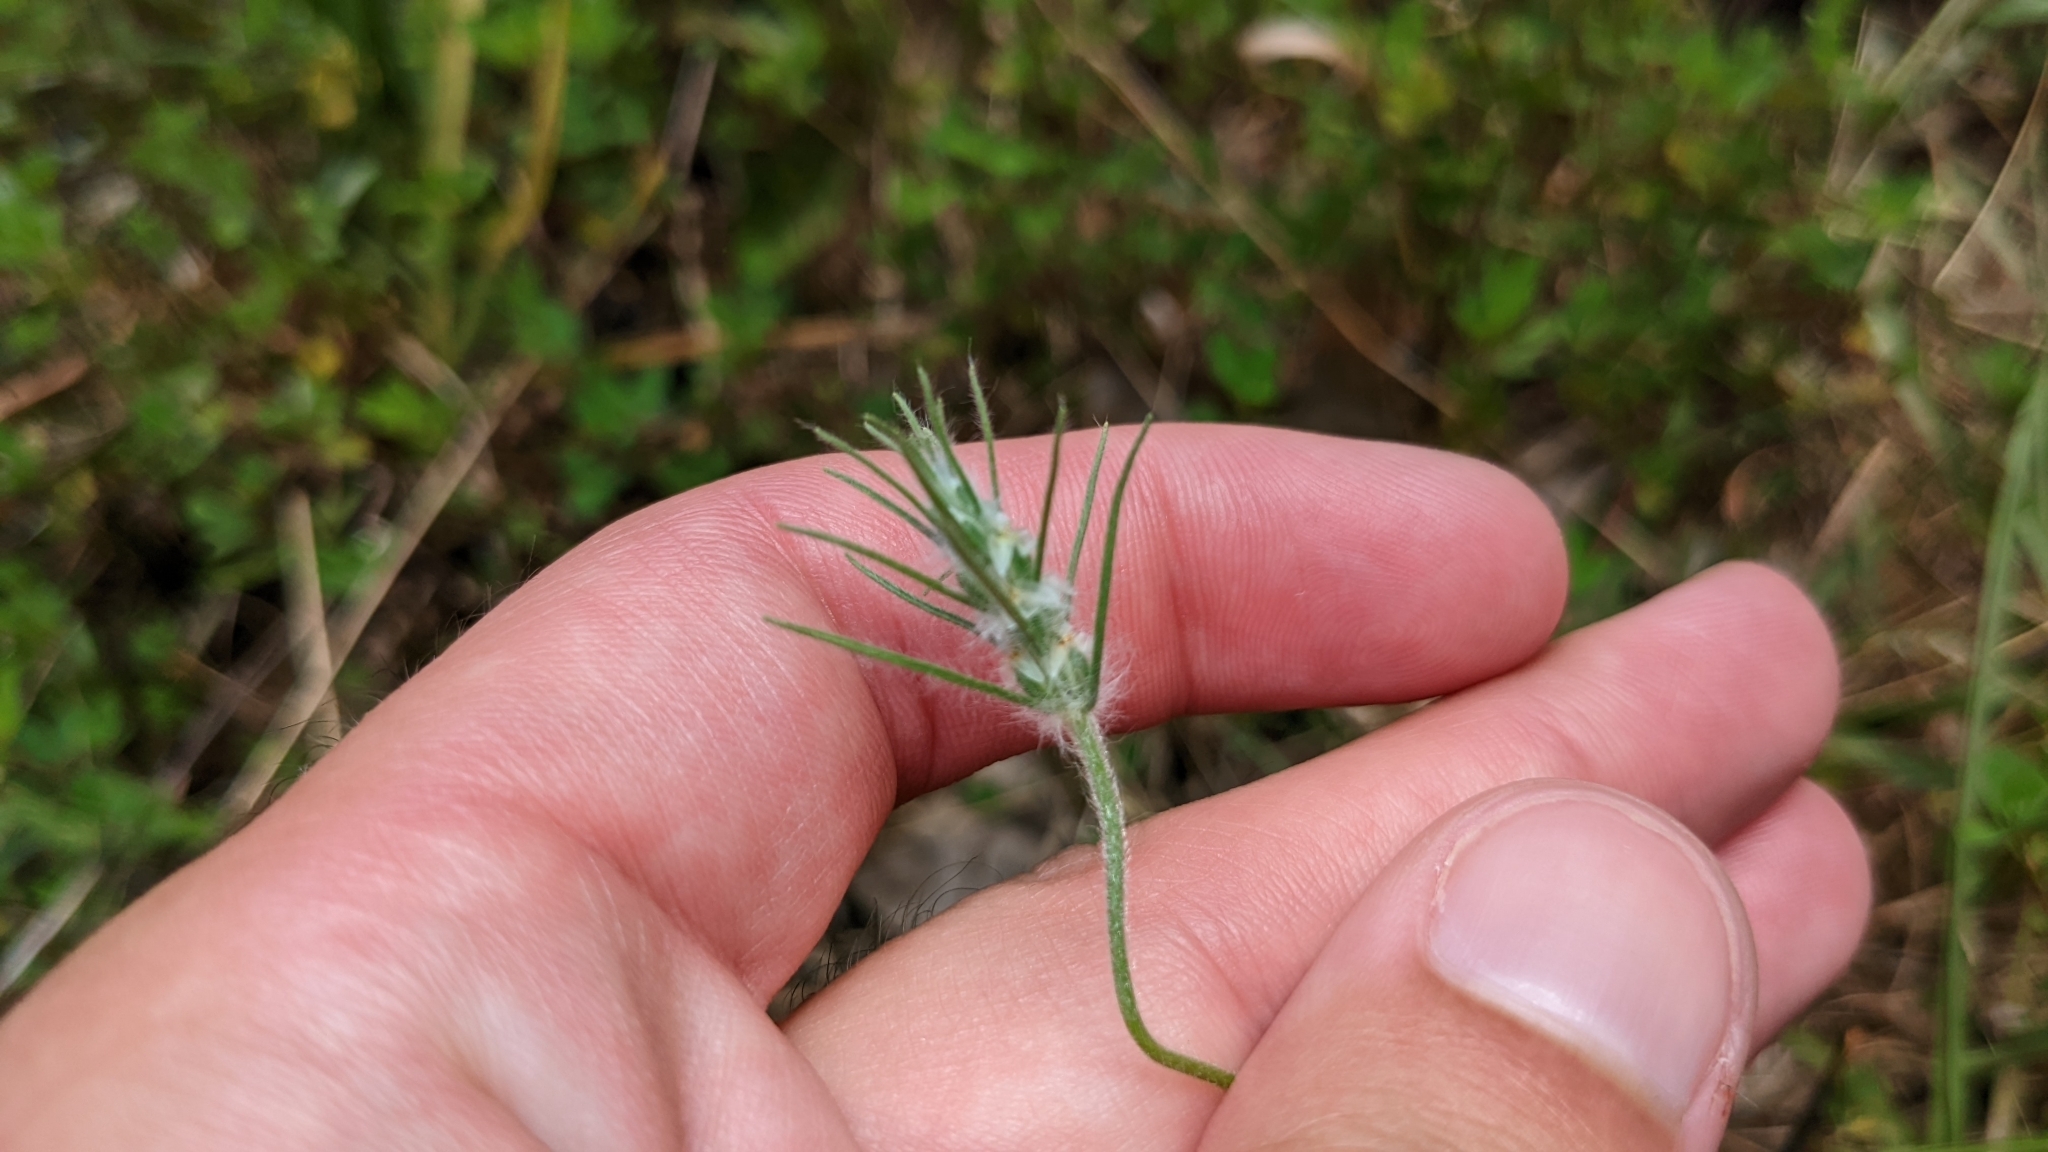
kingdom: Plantae
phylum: Tracheophyta
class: Magnoliopsida
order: Lamiales
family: Plantaginaceae
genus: Plantago
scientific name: Plantago aristata
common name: Bracted plantain
